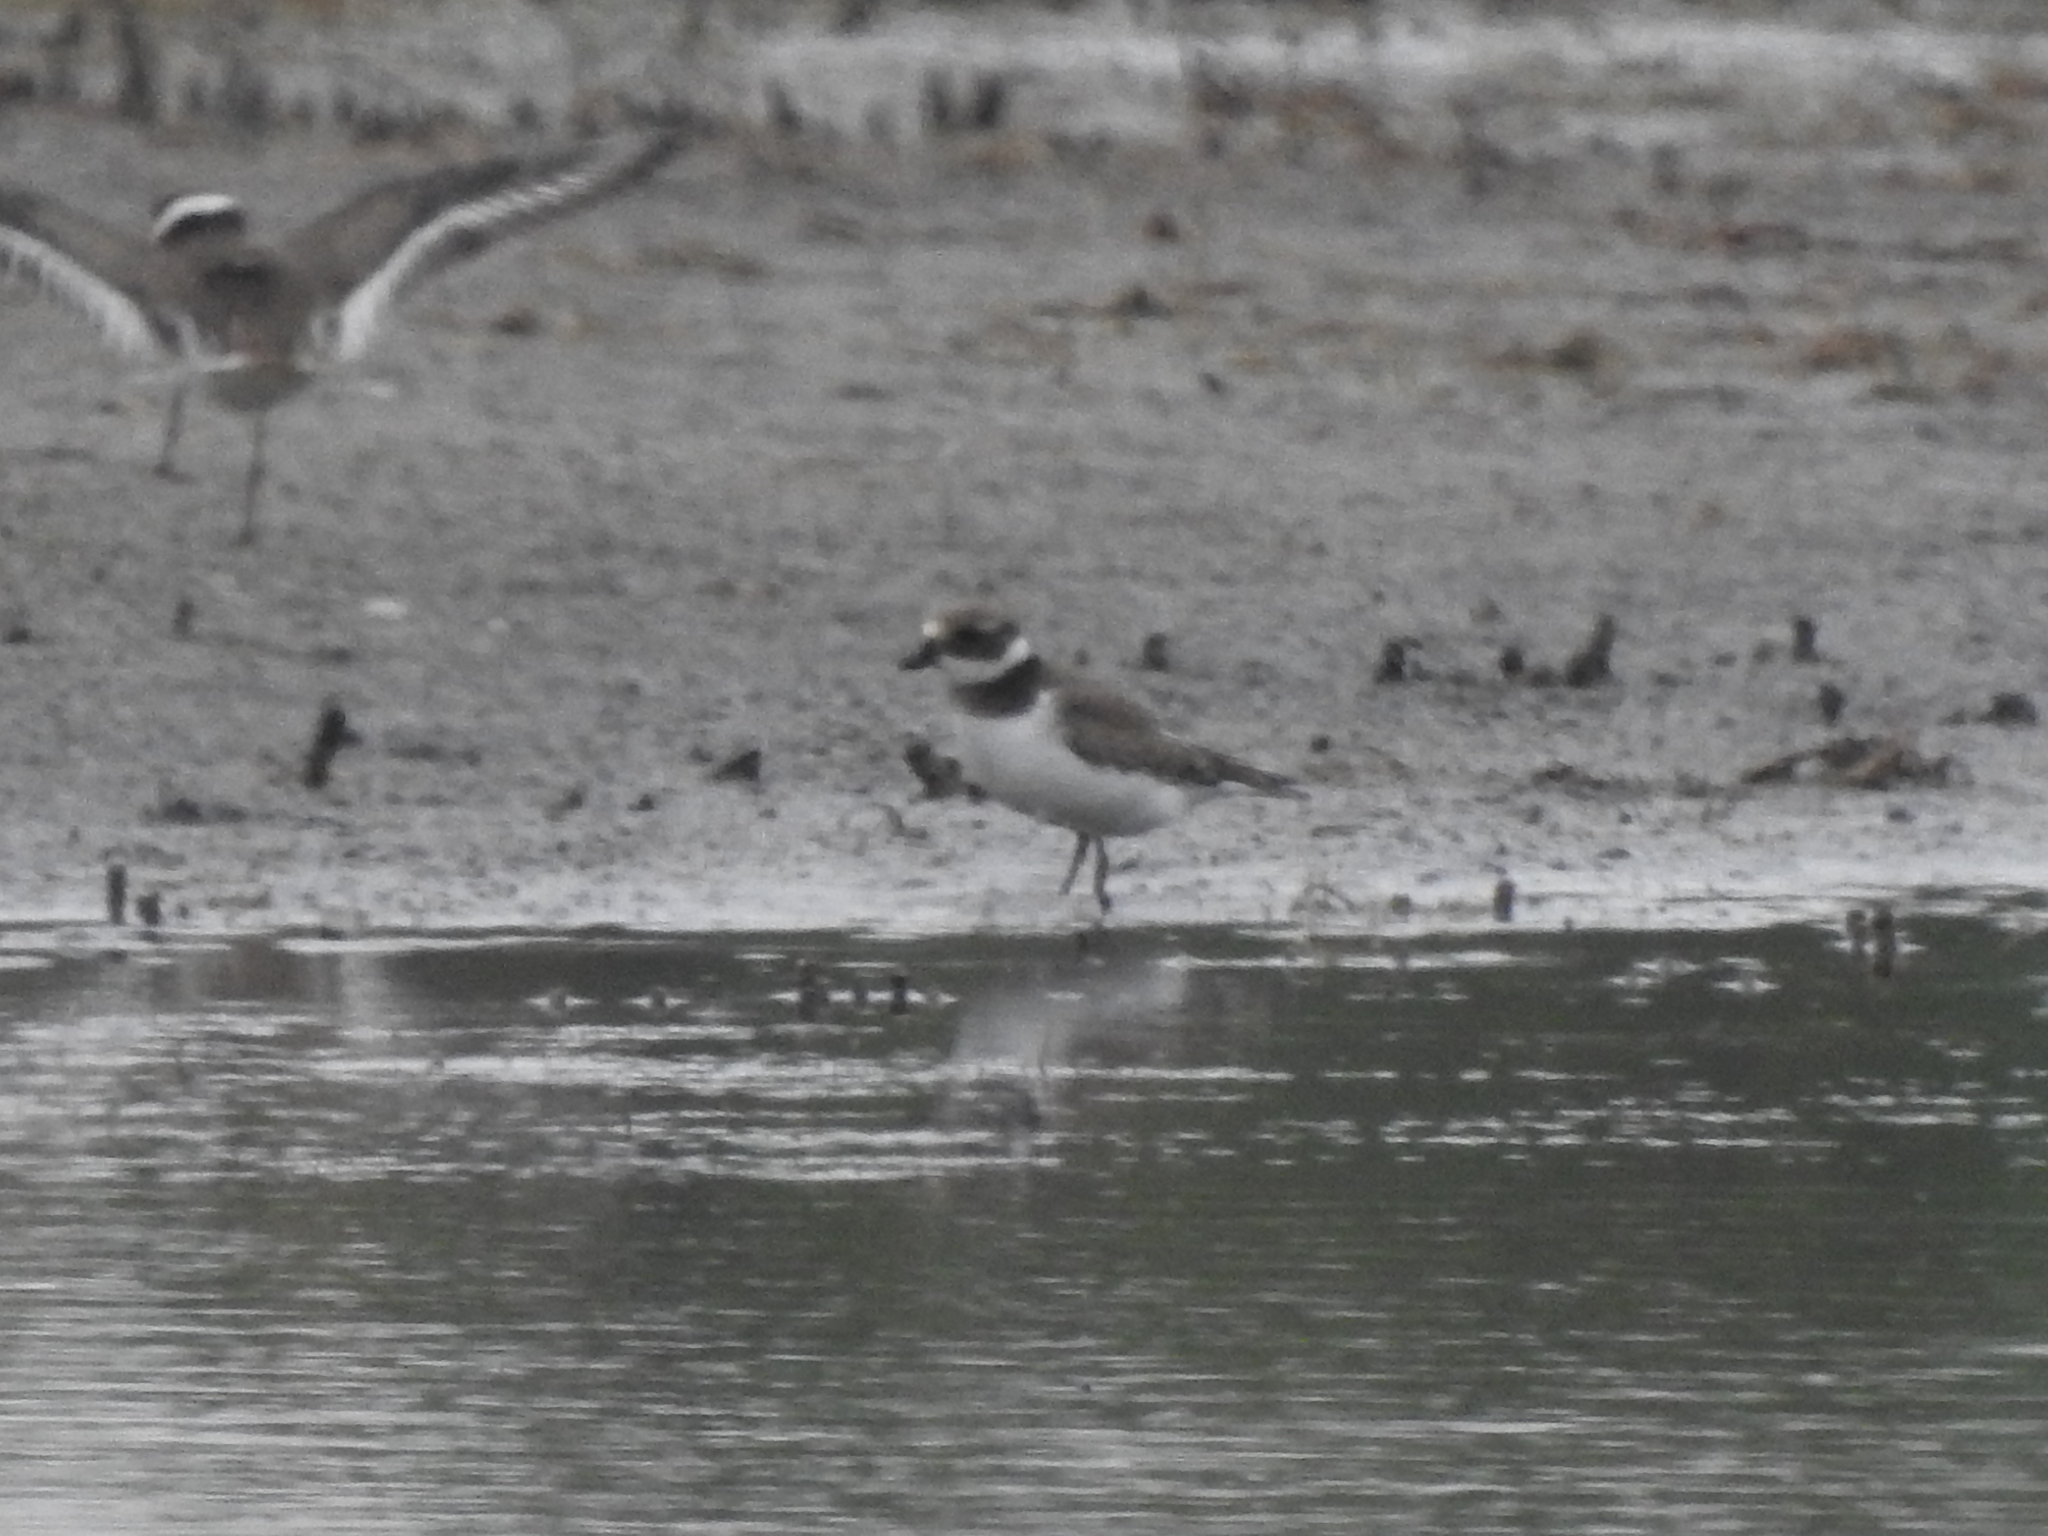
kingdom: Animalia
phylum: Chordata
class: Aves
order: Charadriiformes
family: Charadriidae
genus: Charadrius
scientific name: Charadrius hiaticula
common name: Common ringed plover
